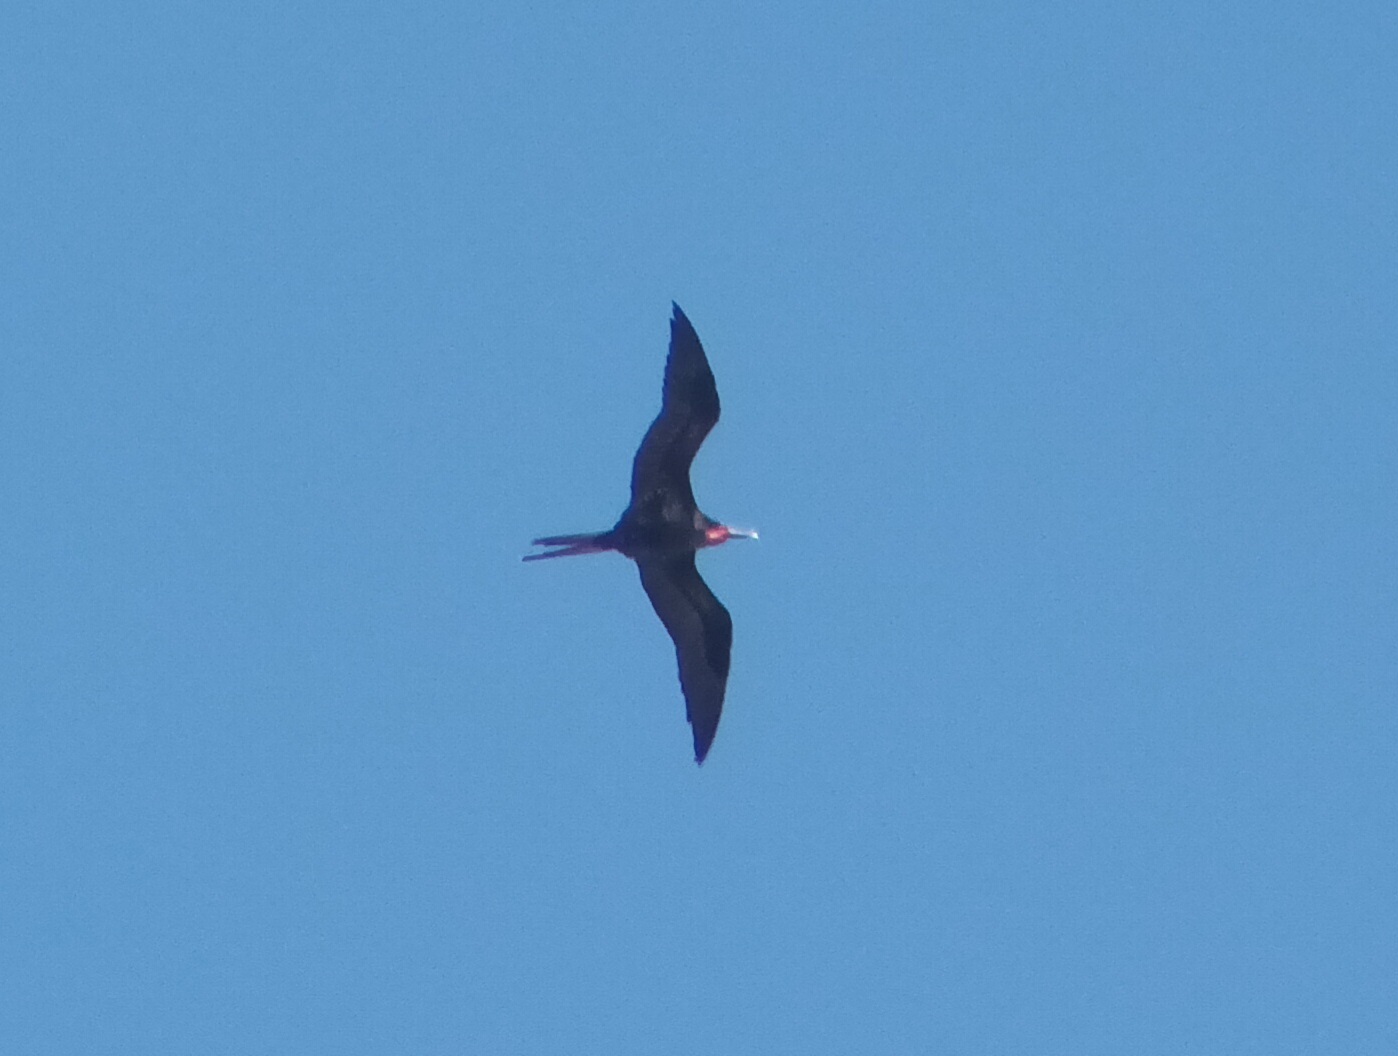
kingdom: Animalia
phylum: Chordata
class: Aves
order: Suliformes
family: Fregatidae
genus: Fregata
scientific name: Fregata minor
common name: Great frigatebird
